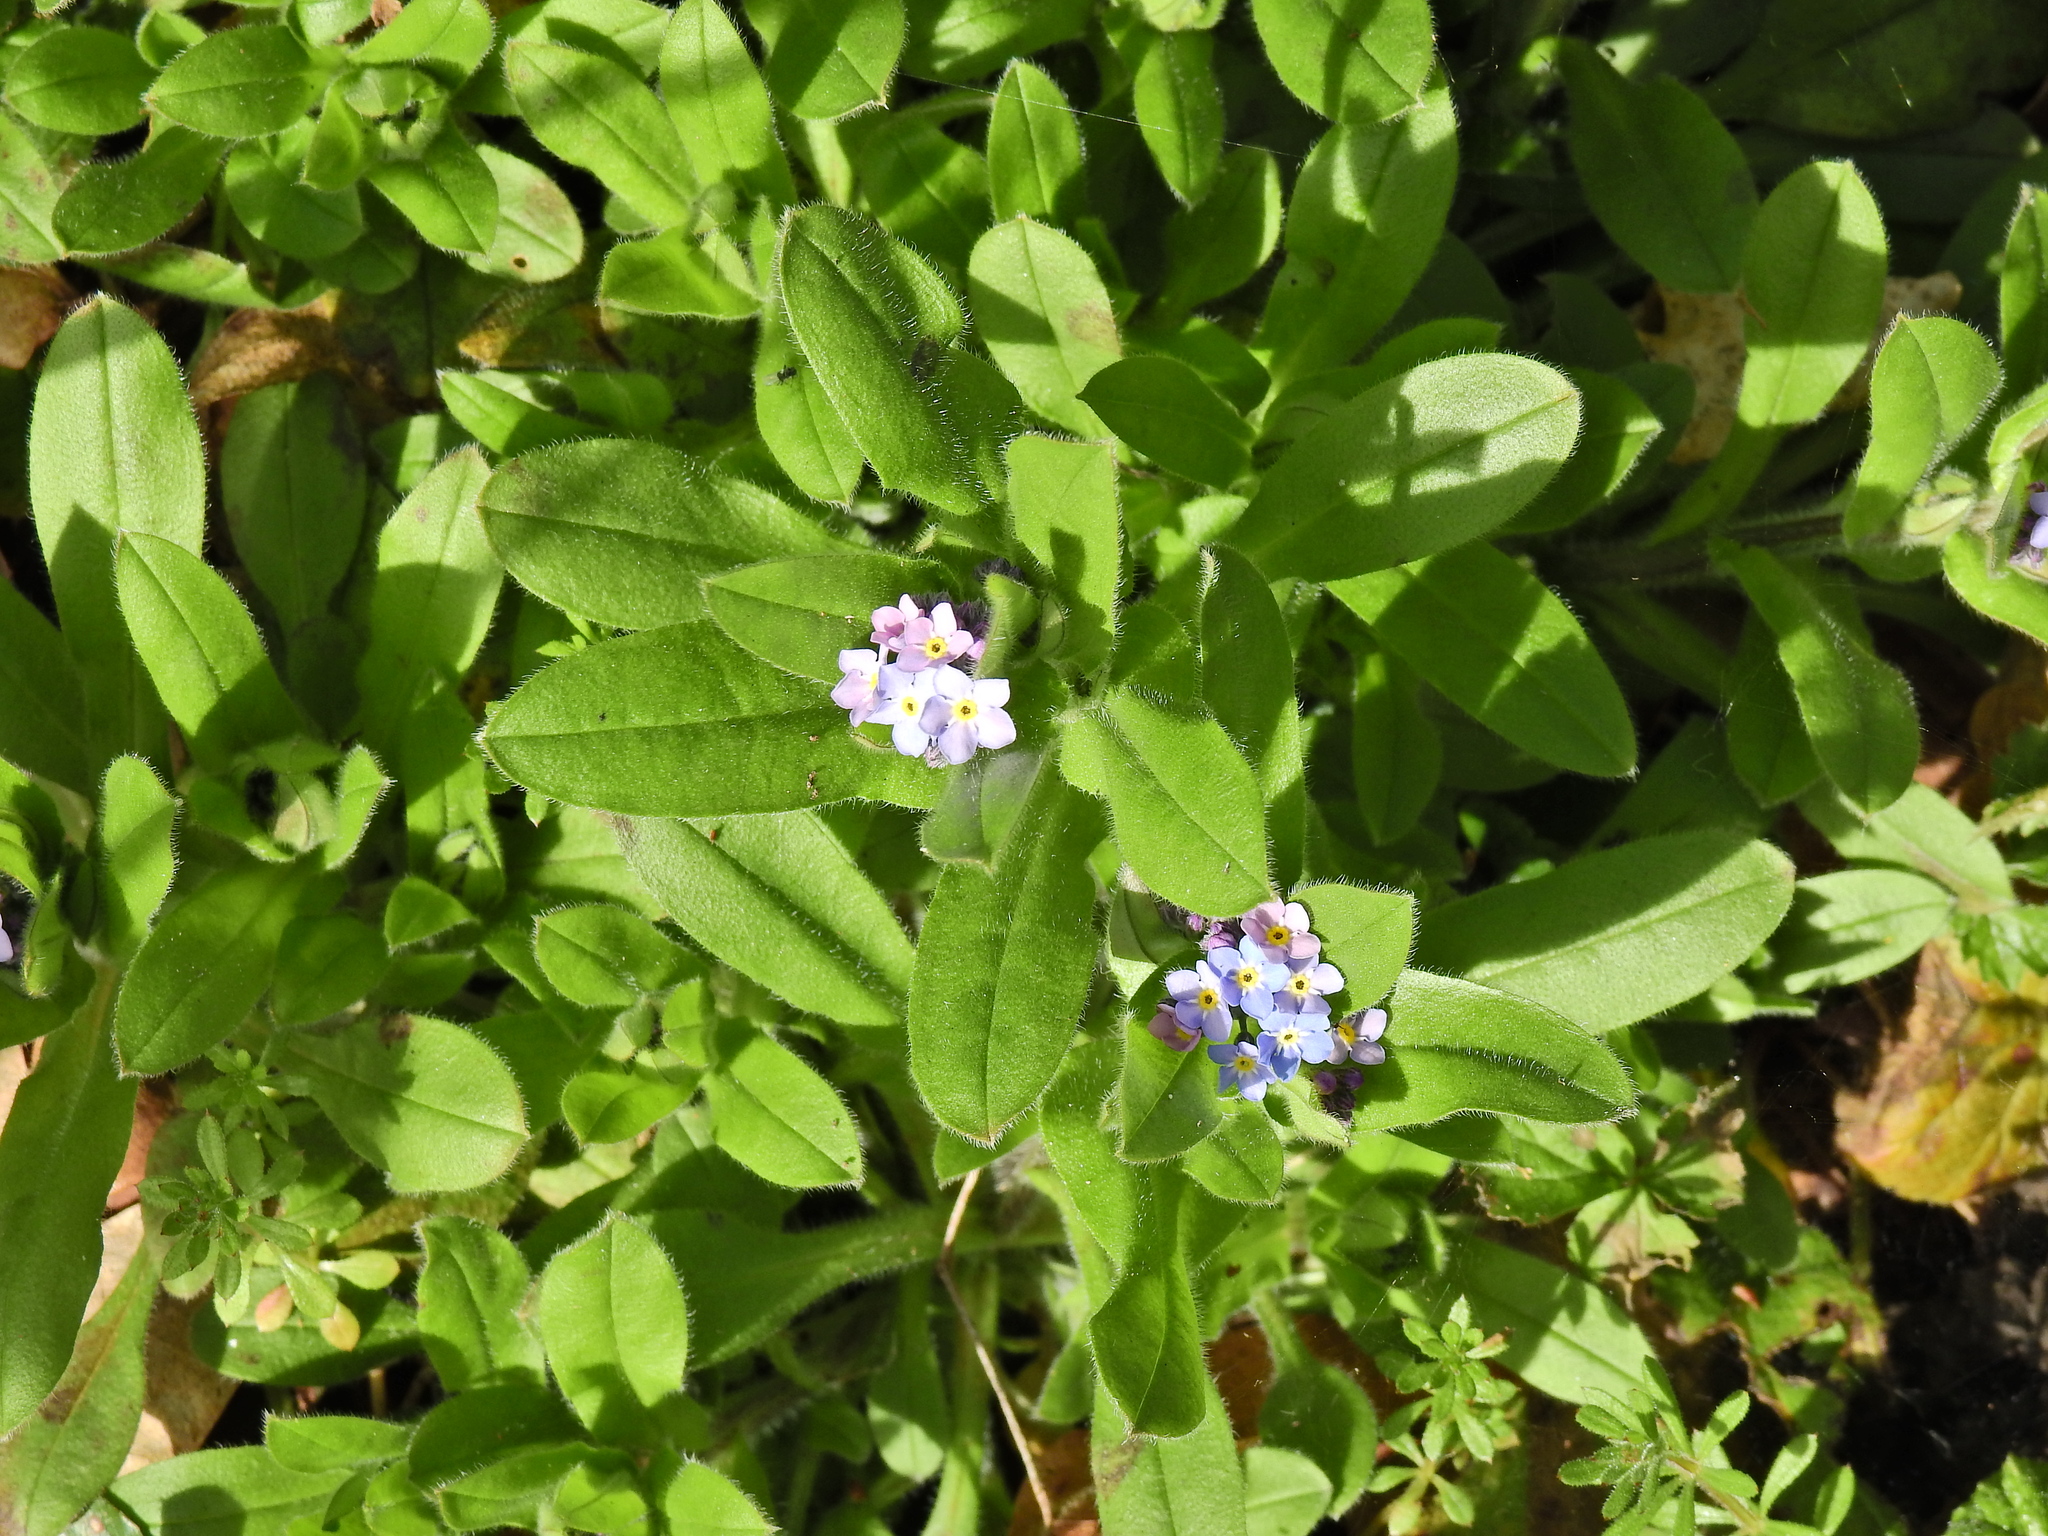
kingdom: Plantae
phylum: Tracheophyta
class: Magnoliopsida
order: Boraginales
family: Boraginaceae
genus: Myosotis
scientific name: Myosotis sylvatica
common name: Wood forget-me-not
